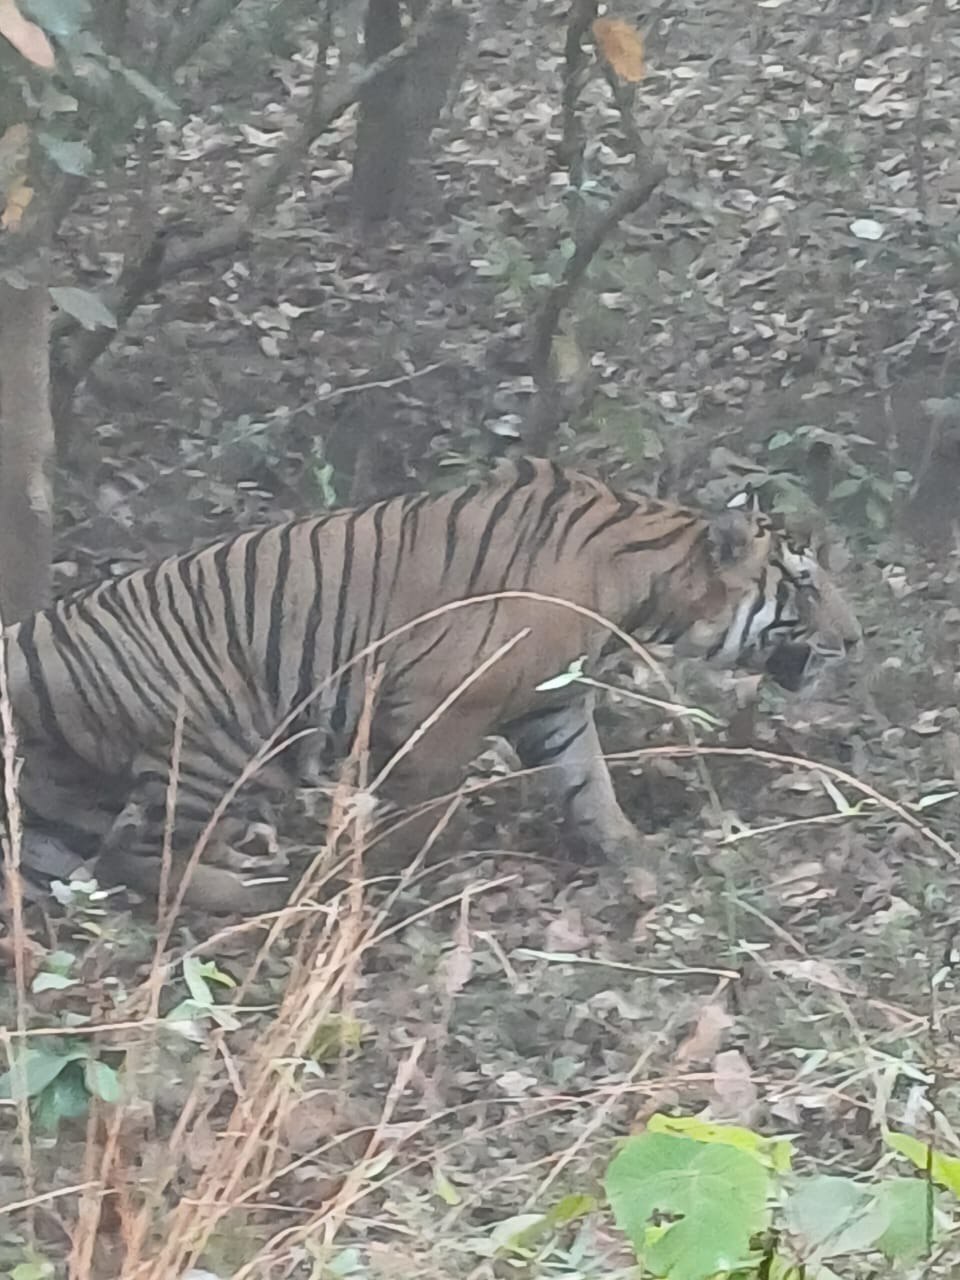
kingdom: Animalia
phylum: Chordata
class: Mammalia
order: Carnivora
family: Felidae
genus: Panthera
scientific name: Panthera tigris
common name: Tiger
